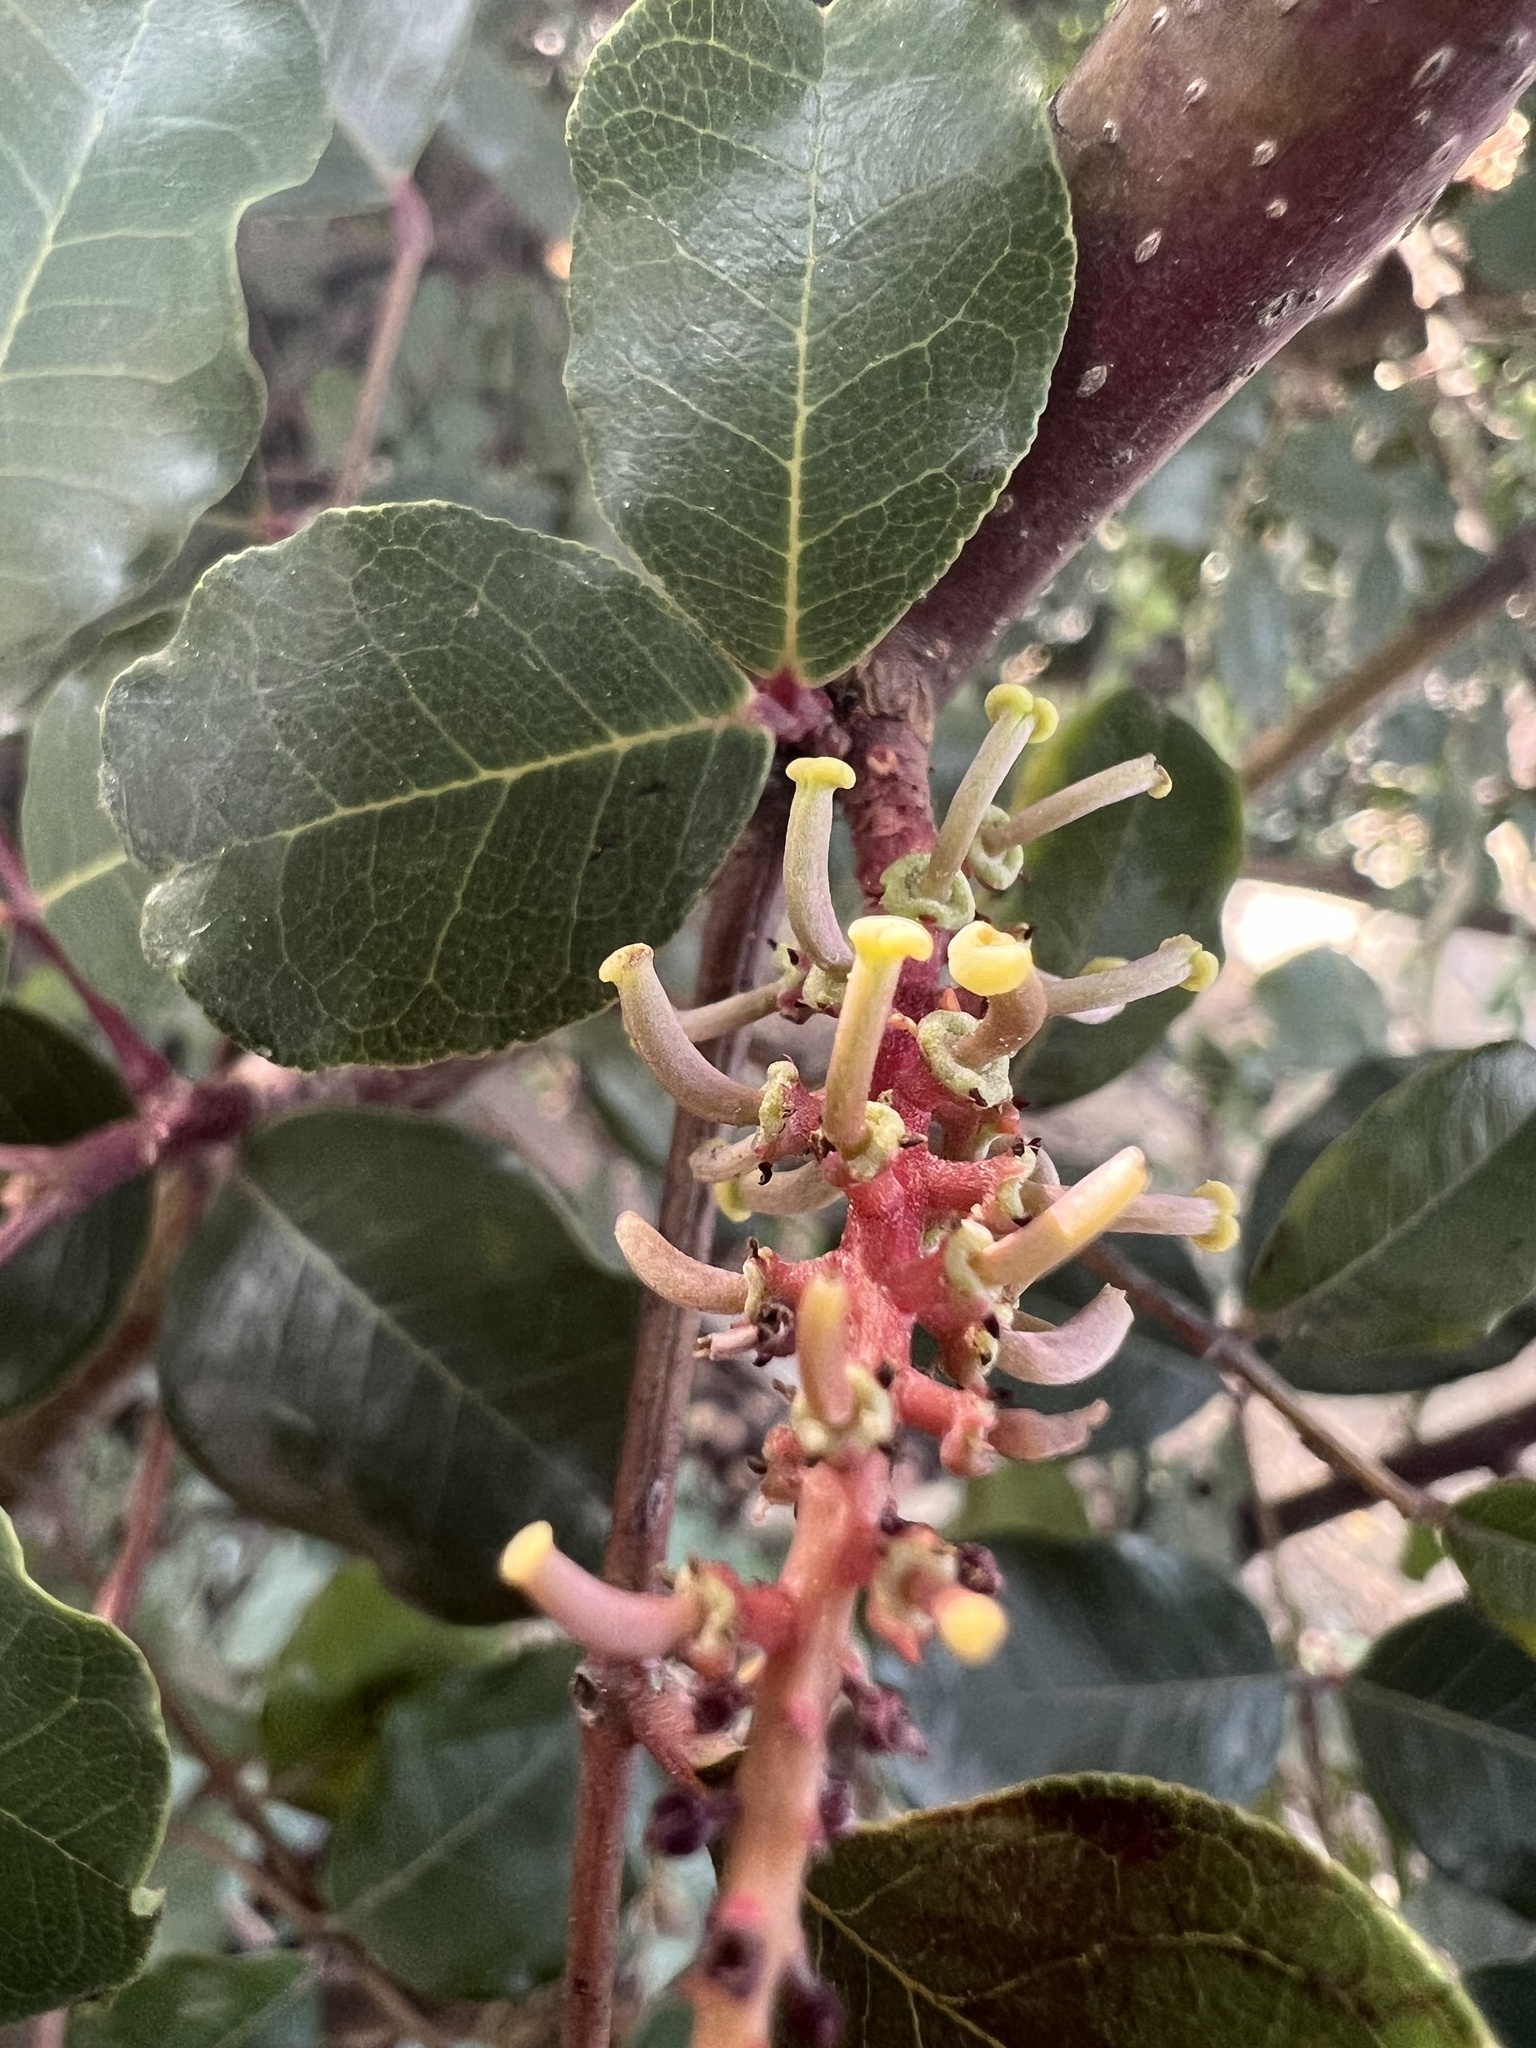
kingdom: Plantae
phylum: Tracheophyta
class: Magnoliopsida
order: Fabales
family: Fabaceae
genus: Ceratonia
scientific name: Ceratonia siliqua
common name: Carob
